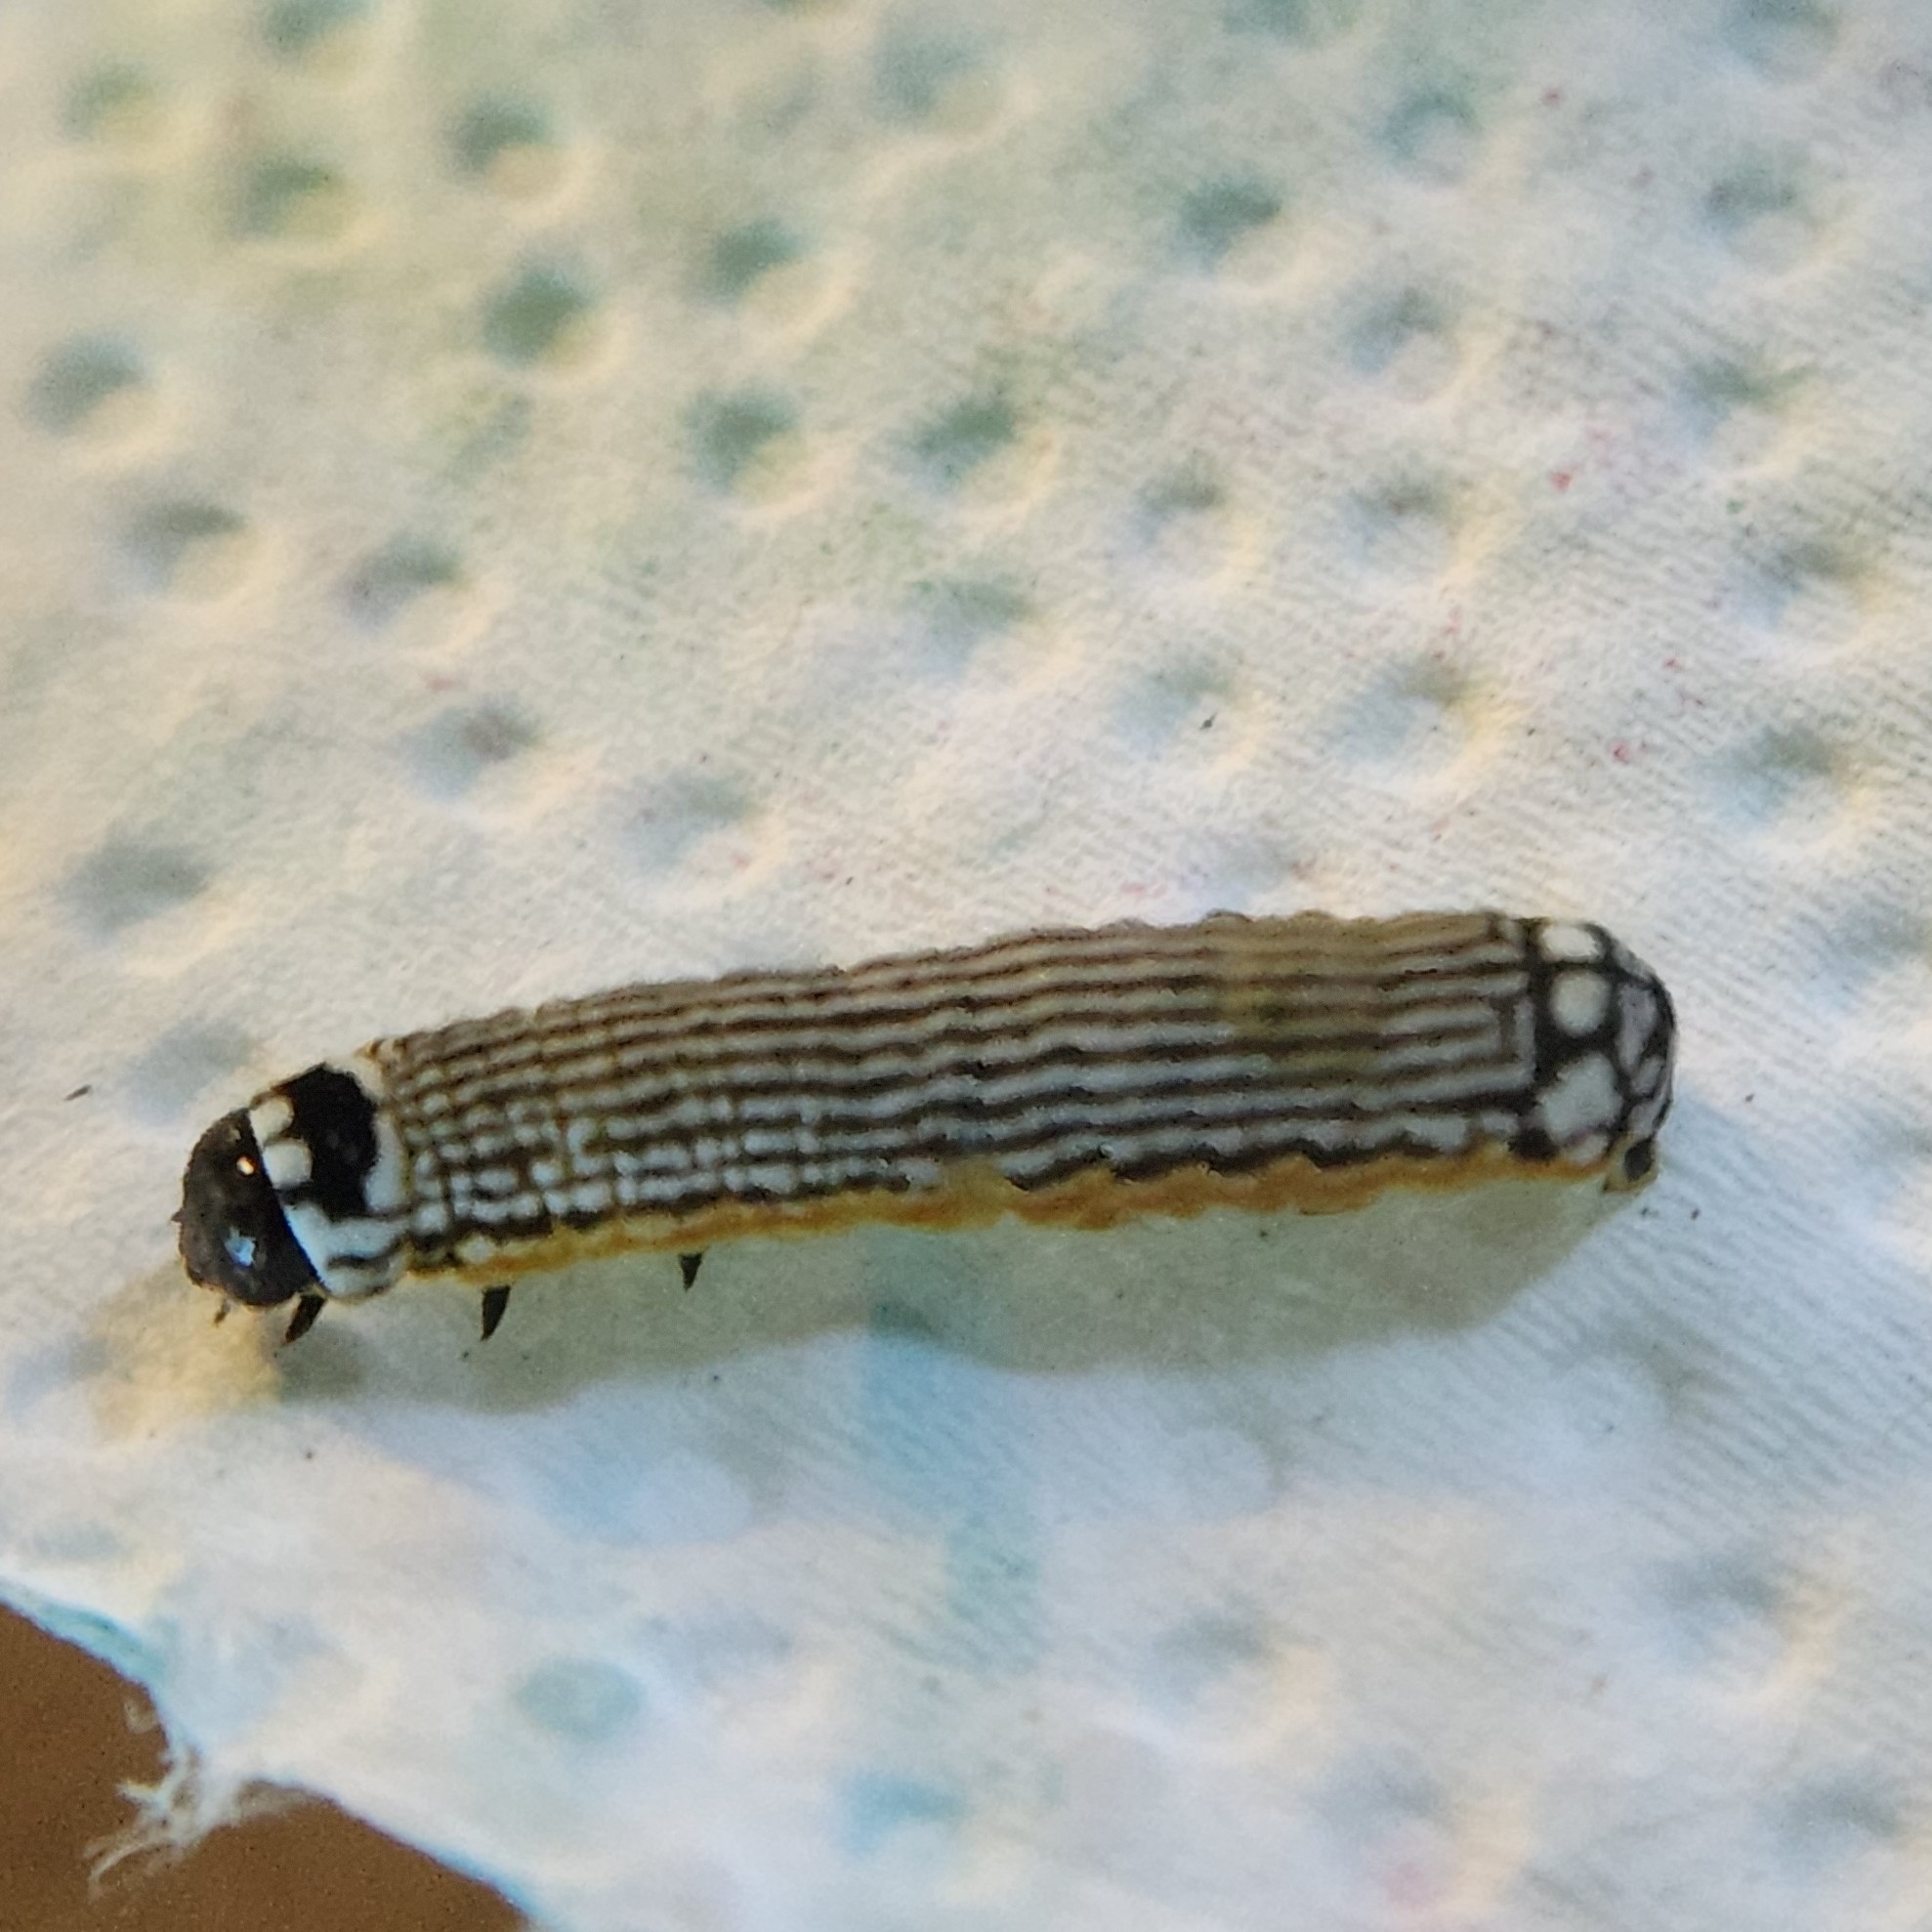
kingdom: Animalia
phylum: Arthropoda
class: Insecta
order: Lepidoptera
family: Noctuidae
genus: Phosphila
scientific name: Phosphila turbulenta
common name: Turbulent phosphila moth
